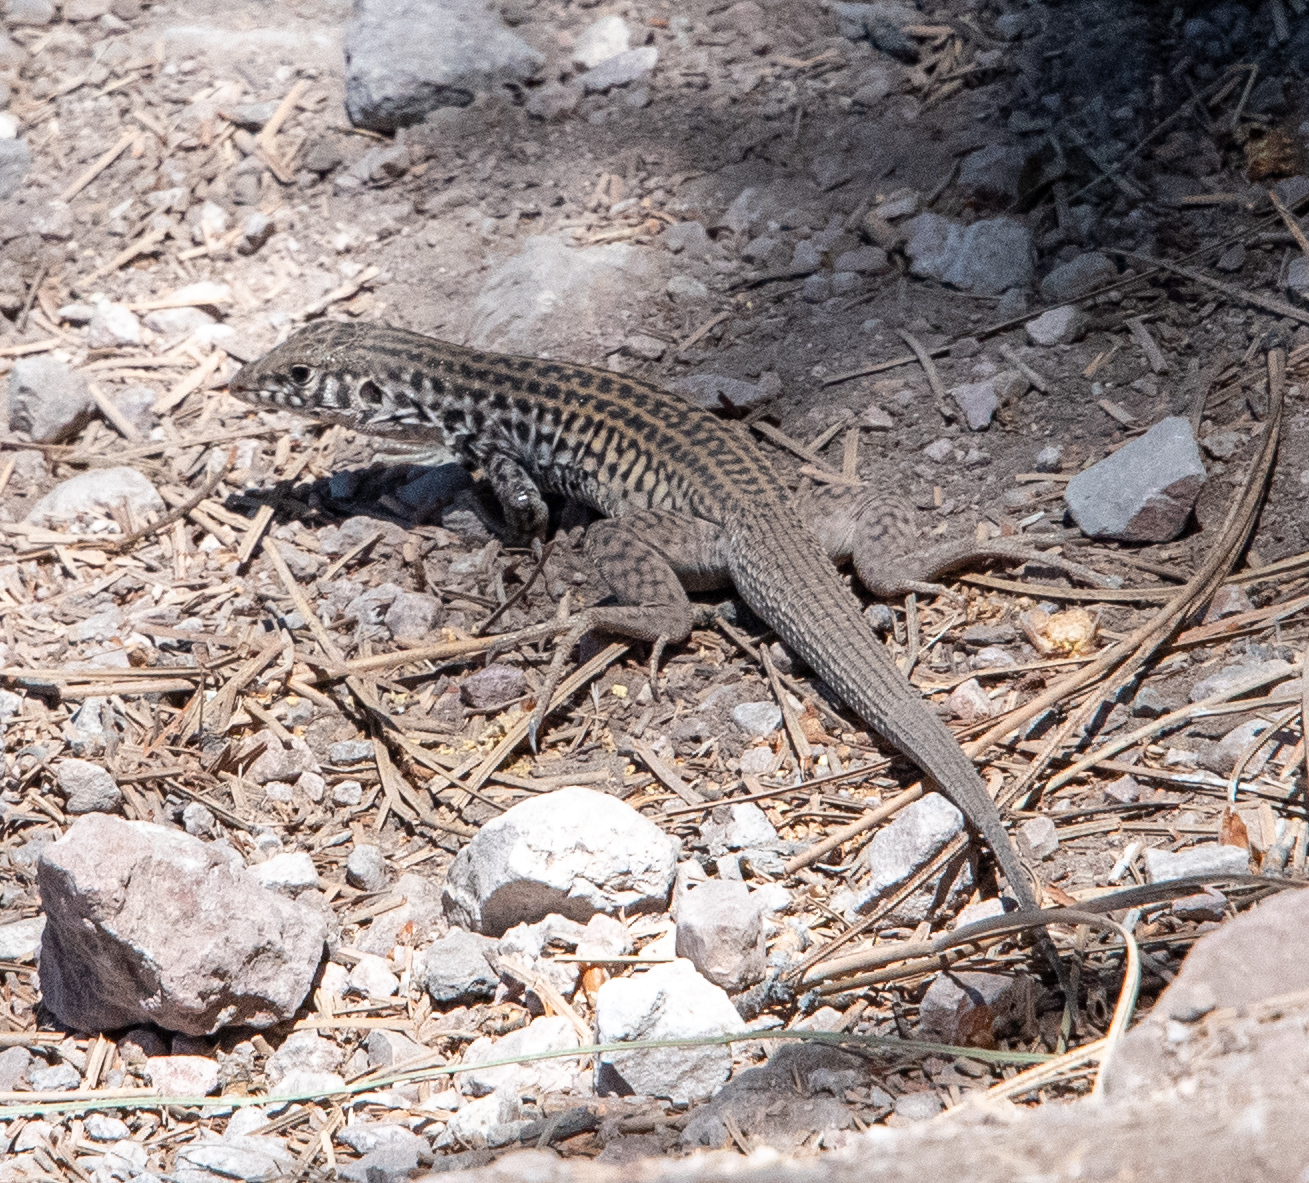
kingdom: Animalia
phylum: Chordata
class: Squamata
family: Teiidae
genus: Aspidoscelis
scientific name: Aspidoscelis tigris
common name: Tiger whiptail
